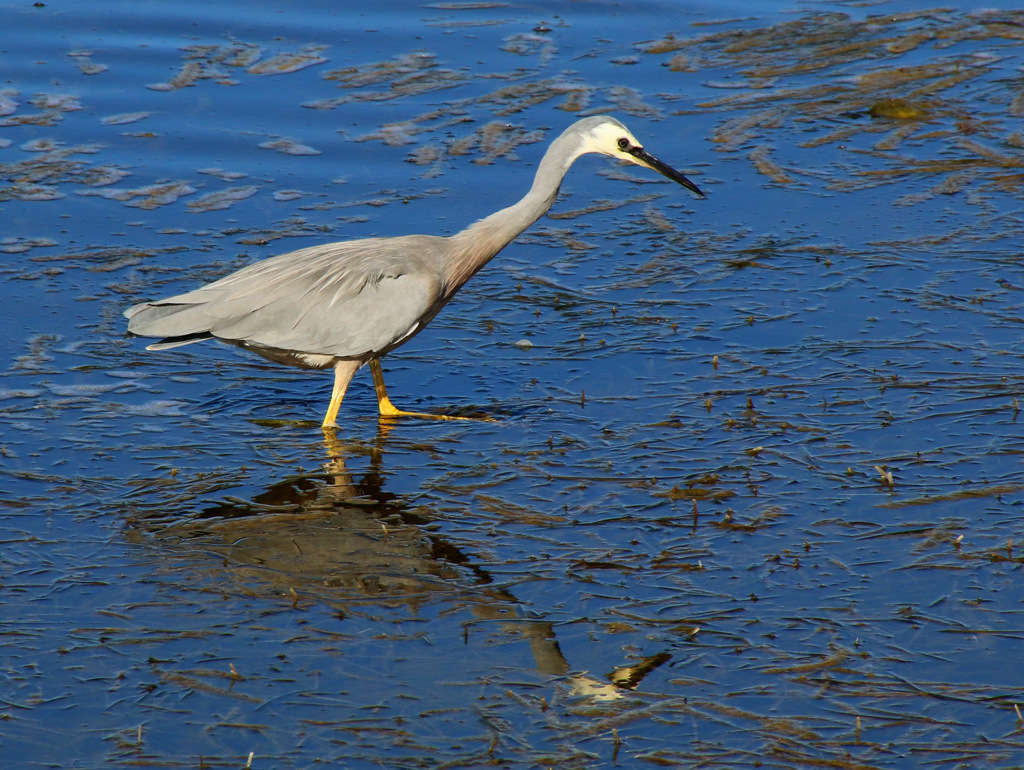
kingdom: Animalia
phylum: Chordata
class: Aves
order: Pelecaniformes
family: Ardeidae
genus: Egretta
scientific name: Egretta novaehollandiae
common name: White-faced heron
